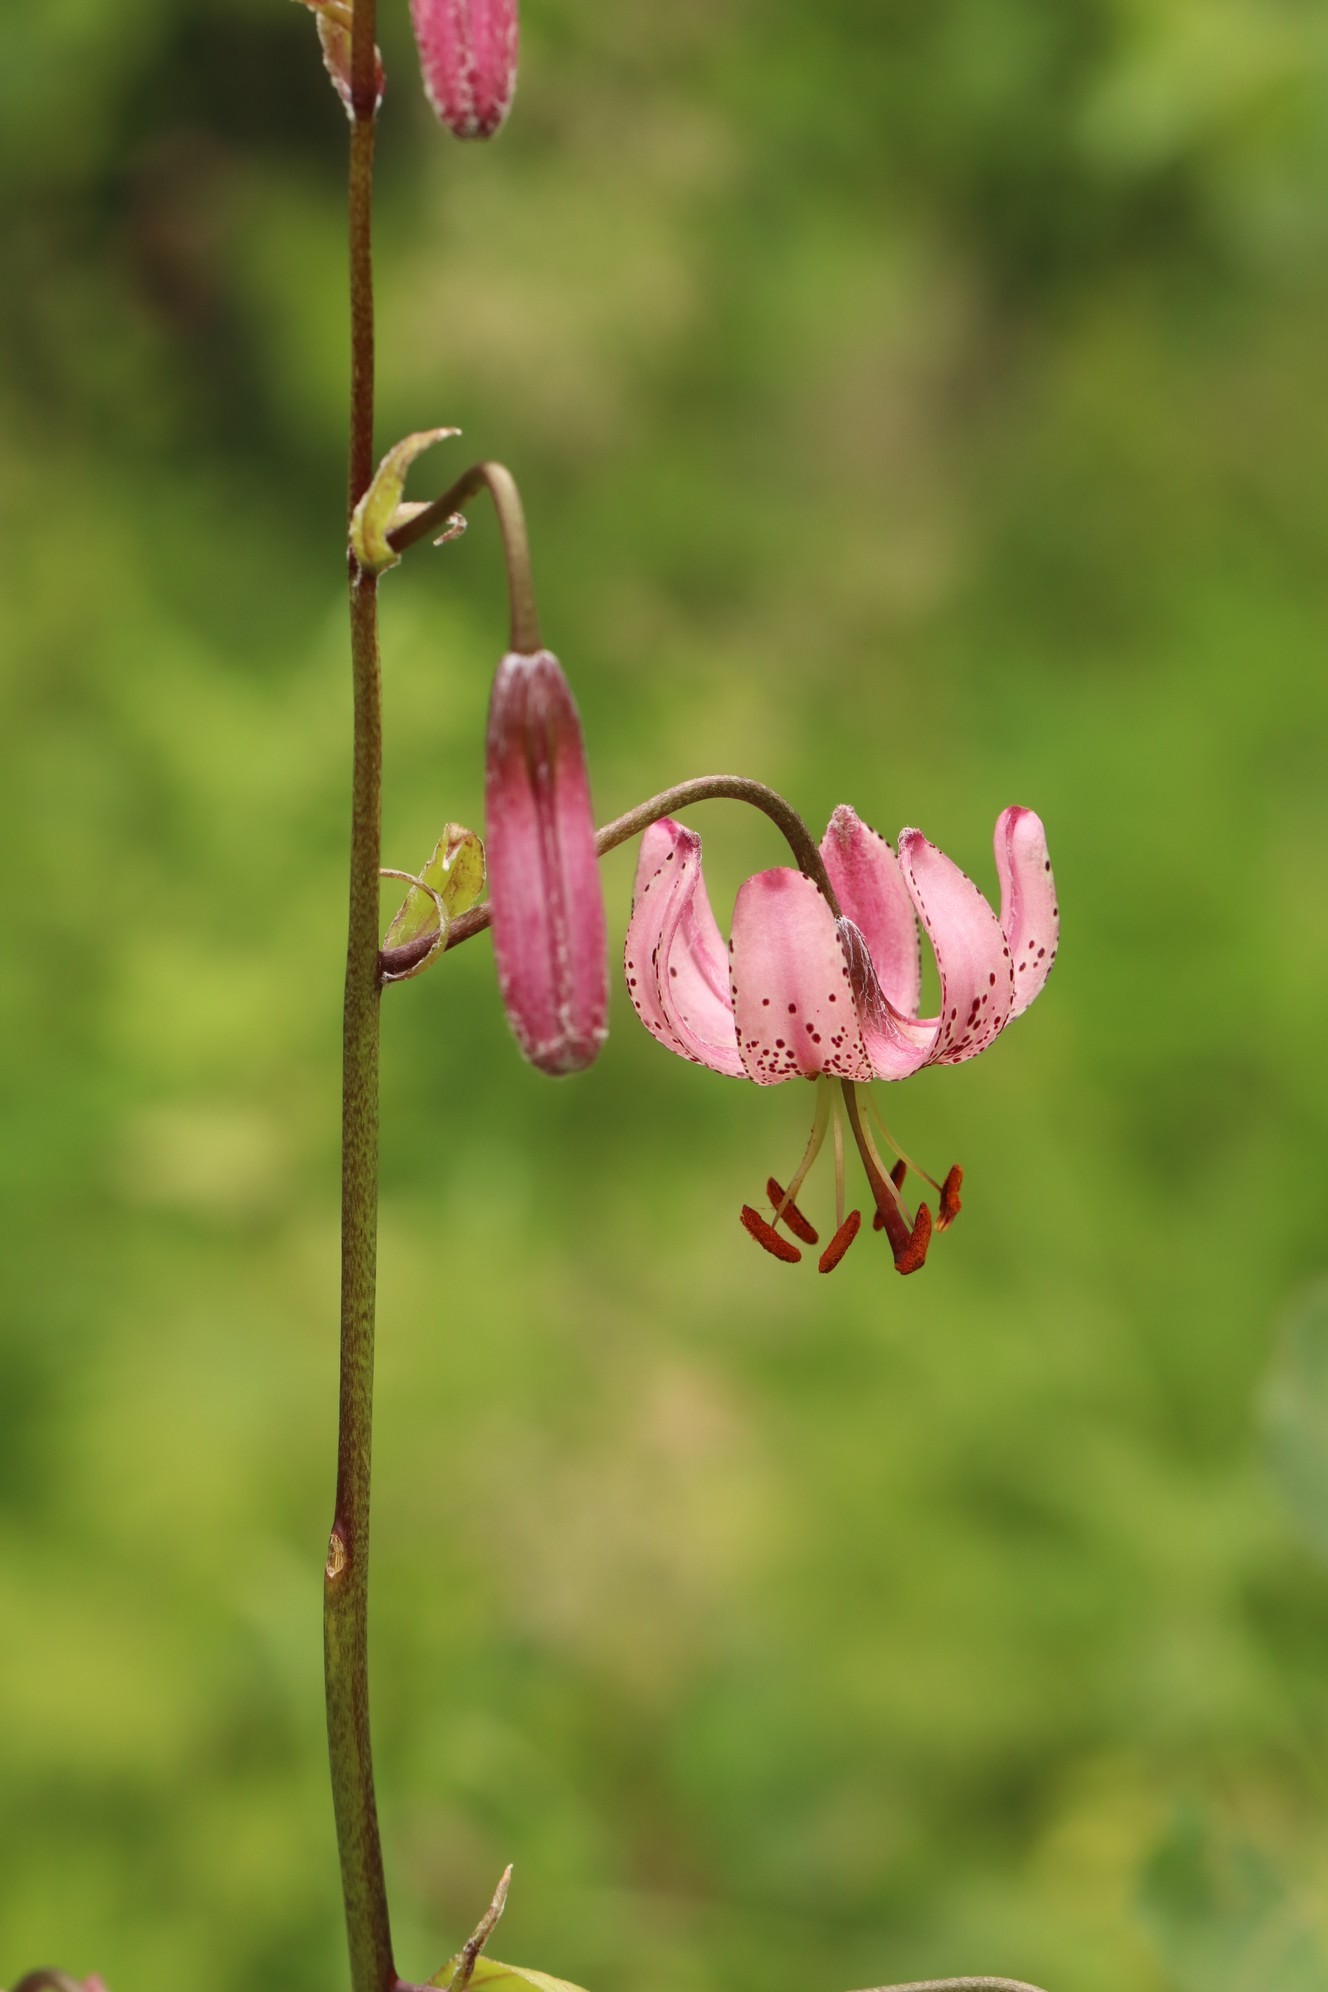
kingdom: Plantae
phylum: Tracheophyta
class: Liliopsida
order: Liliales
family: Liliaceae
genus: Lilium
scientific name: Lilium martagon
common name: Martagon lily
